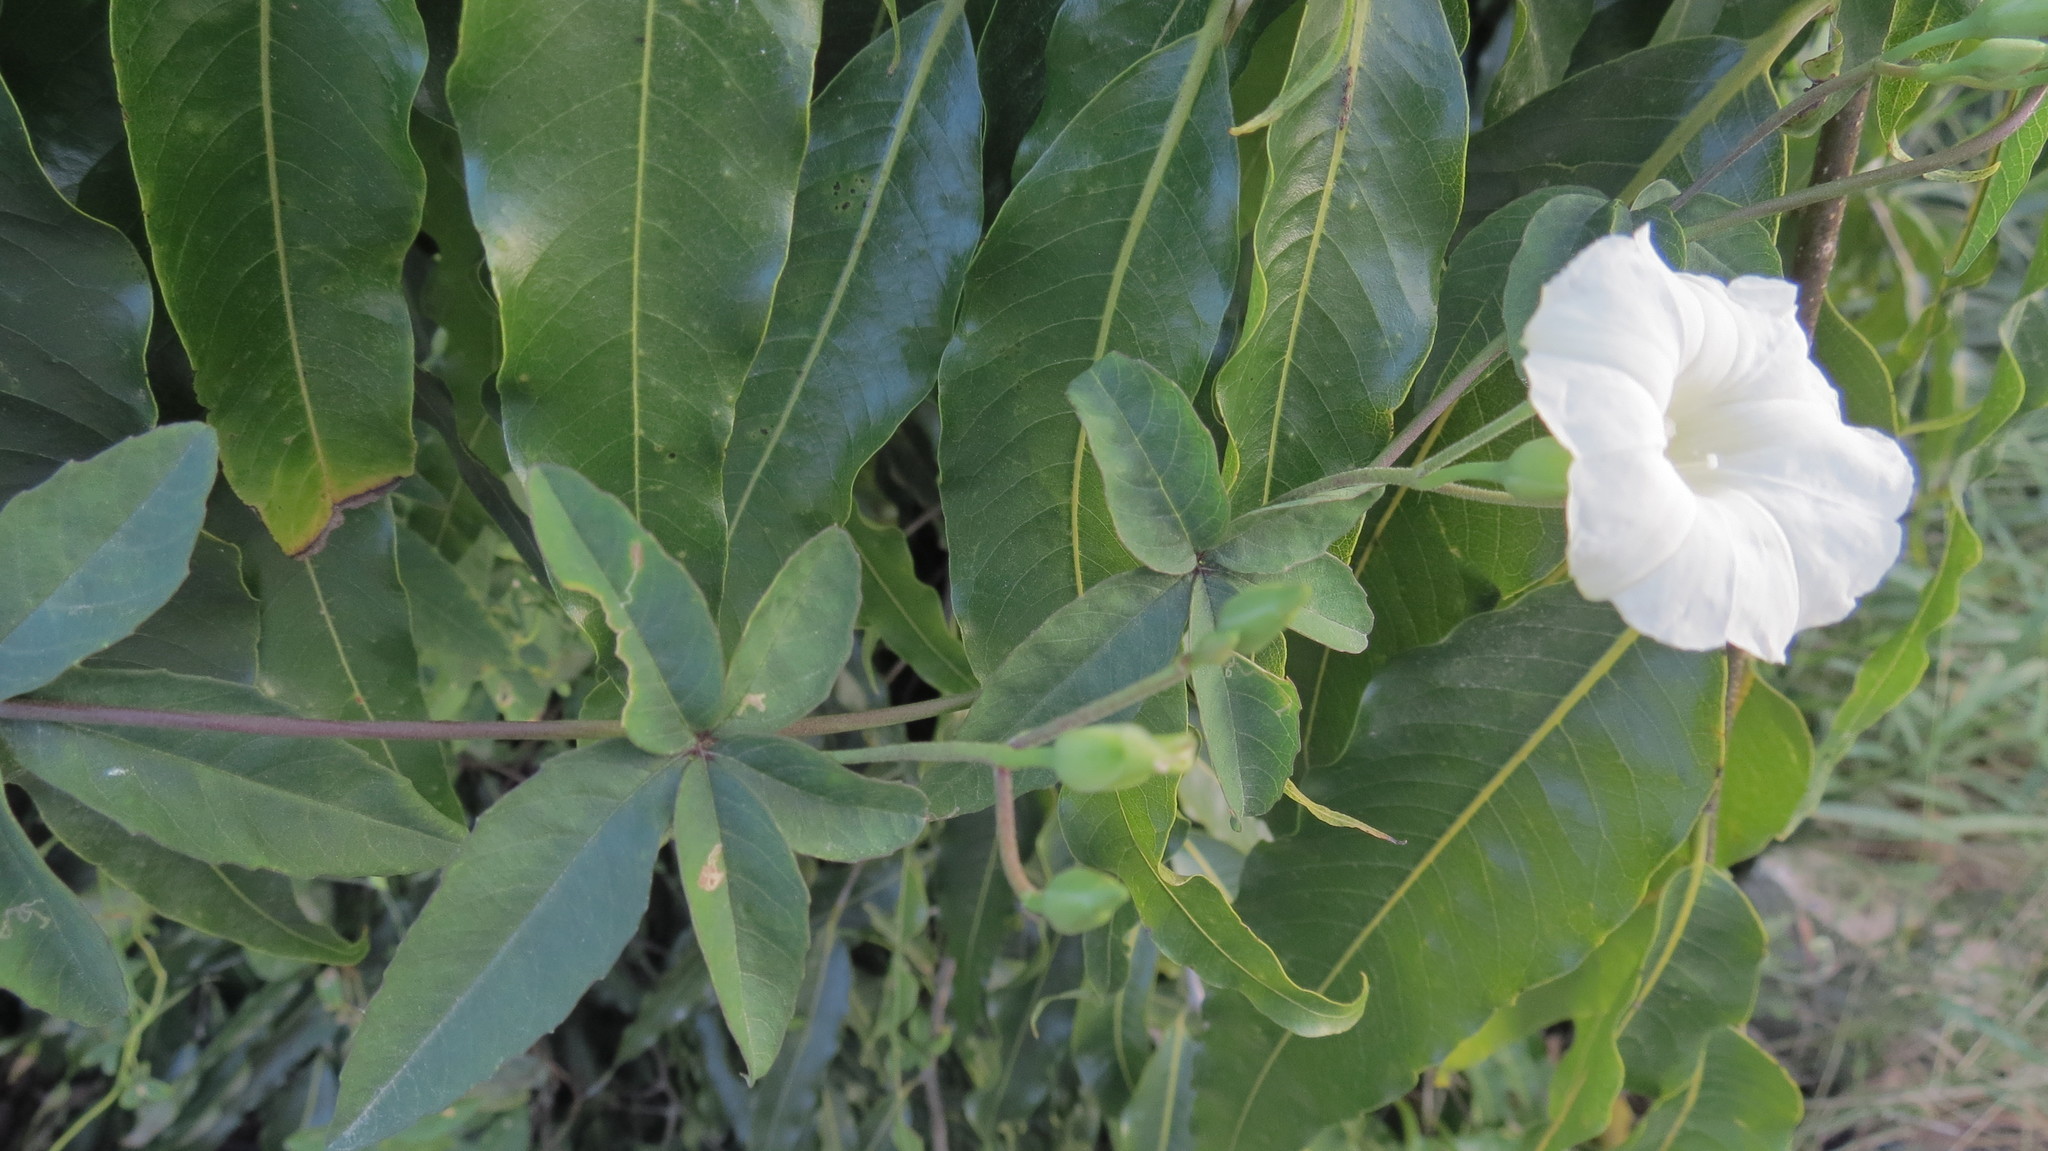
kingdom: Plantae
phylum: Tracheophyta
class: Magnoliopsida
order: Solanales
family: Convolvulaceae
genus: Distimake
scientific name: Distimake quinquefolius
